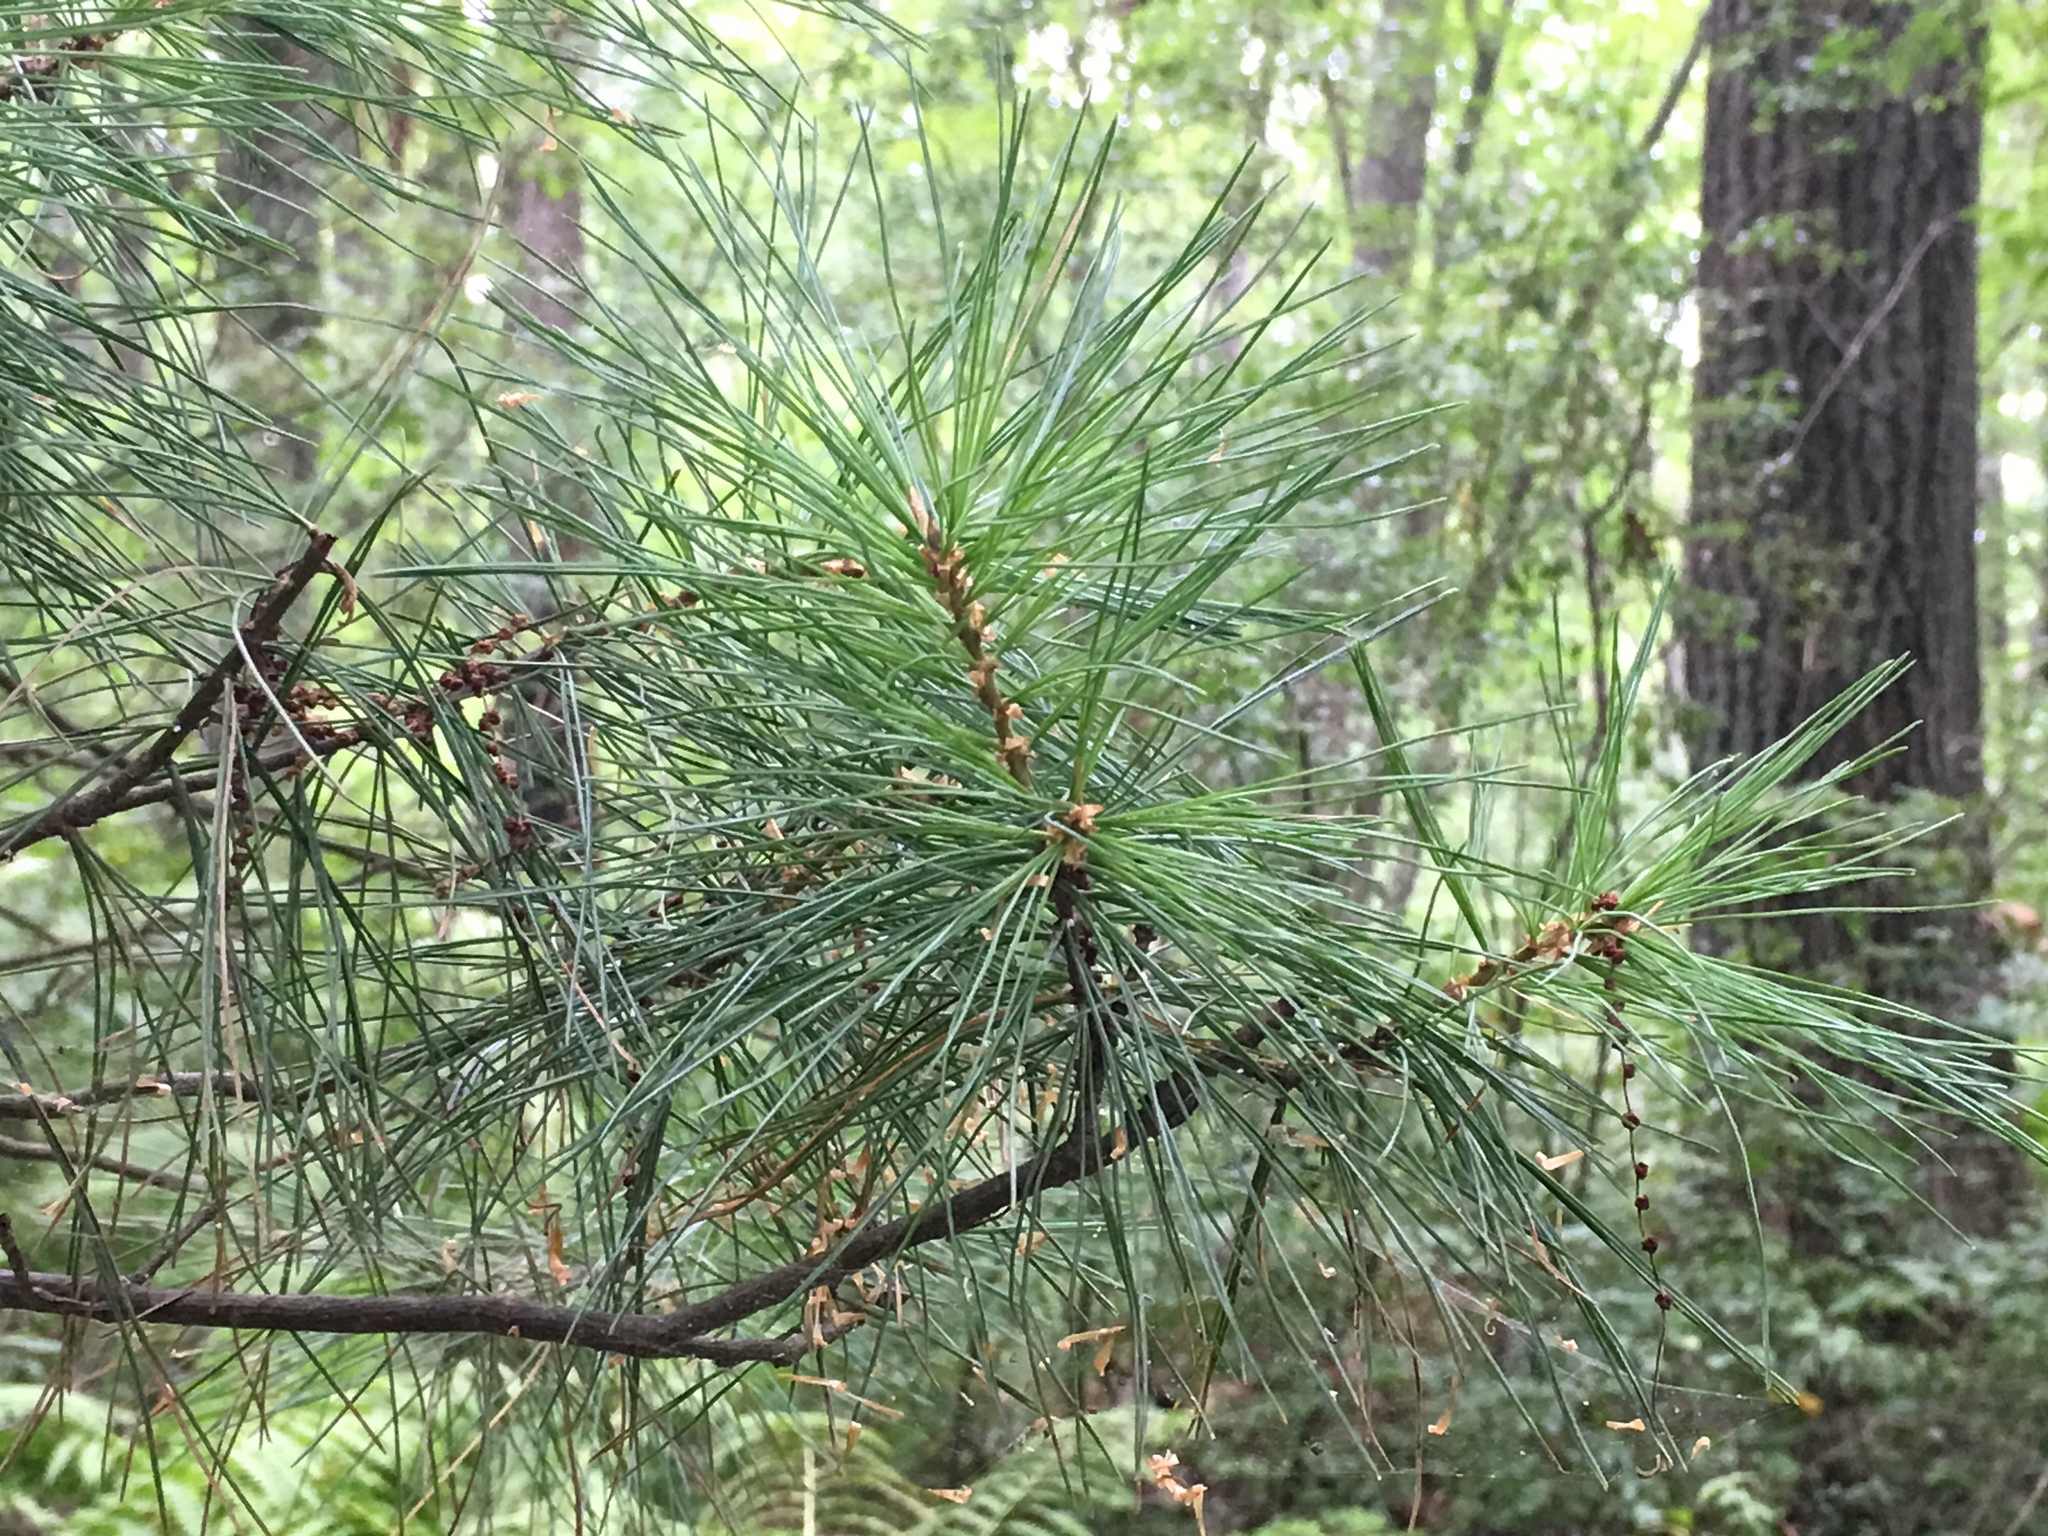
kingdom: Plantae
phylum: Tracheophyta
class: Pinopsida
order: Pinales
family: Pinaceae
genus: Pinus
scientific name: Pinus strobus
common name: Weymouth pine
